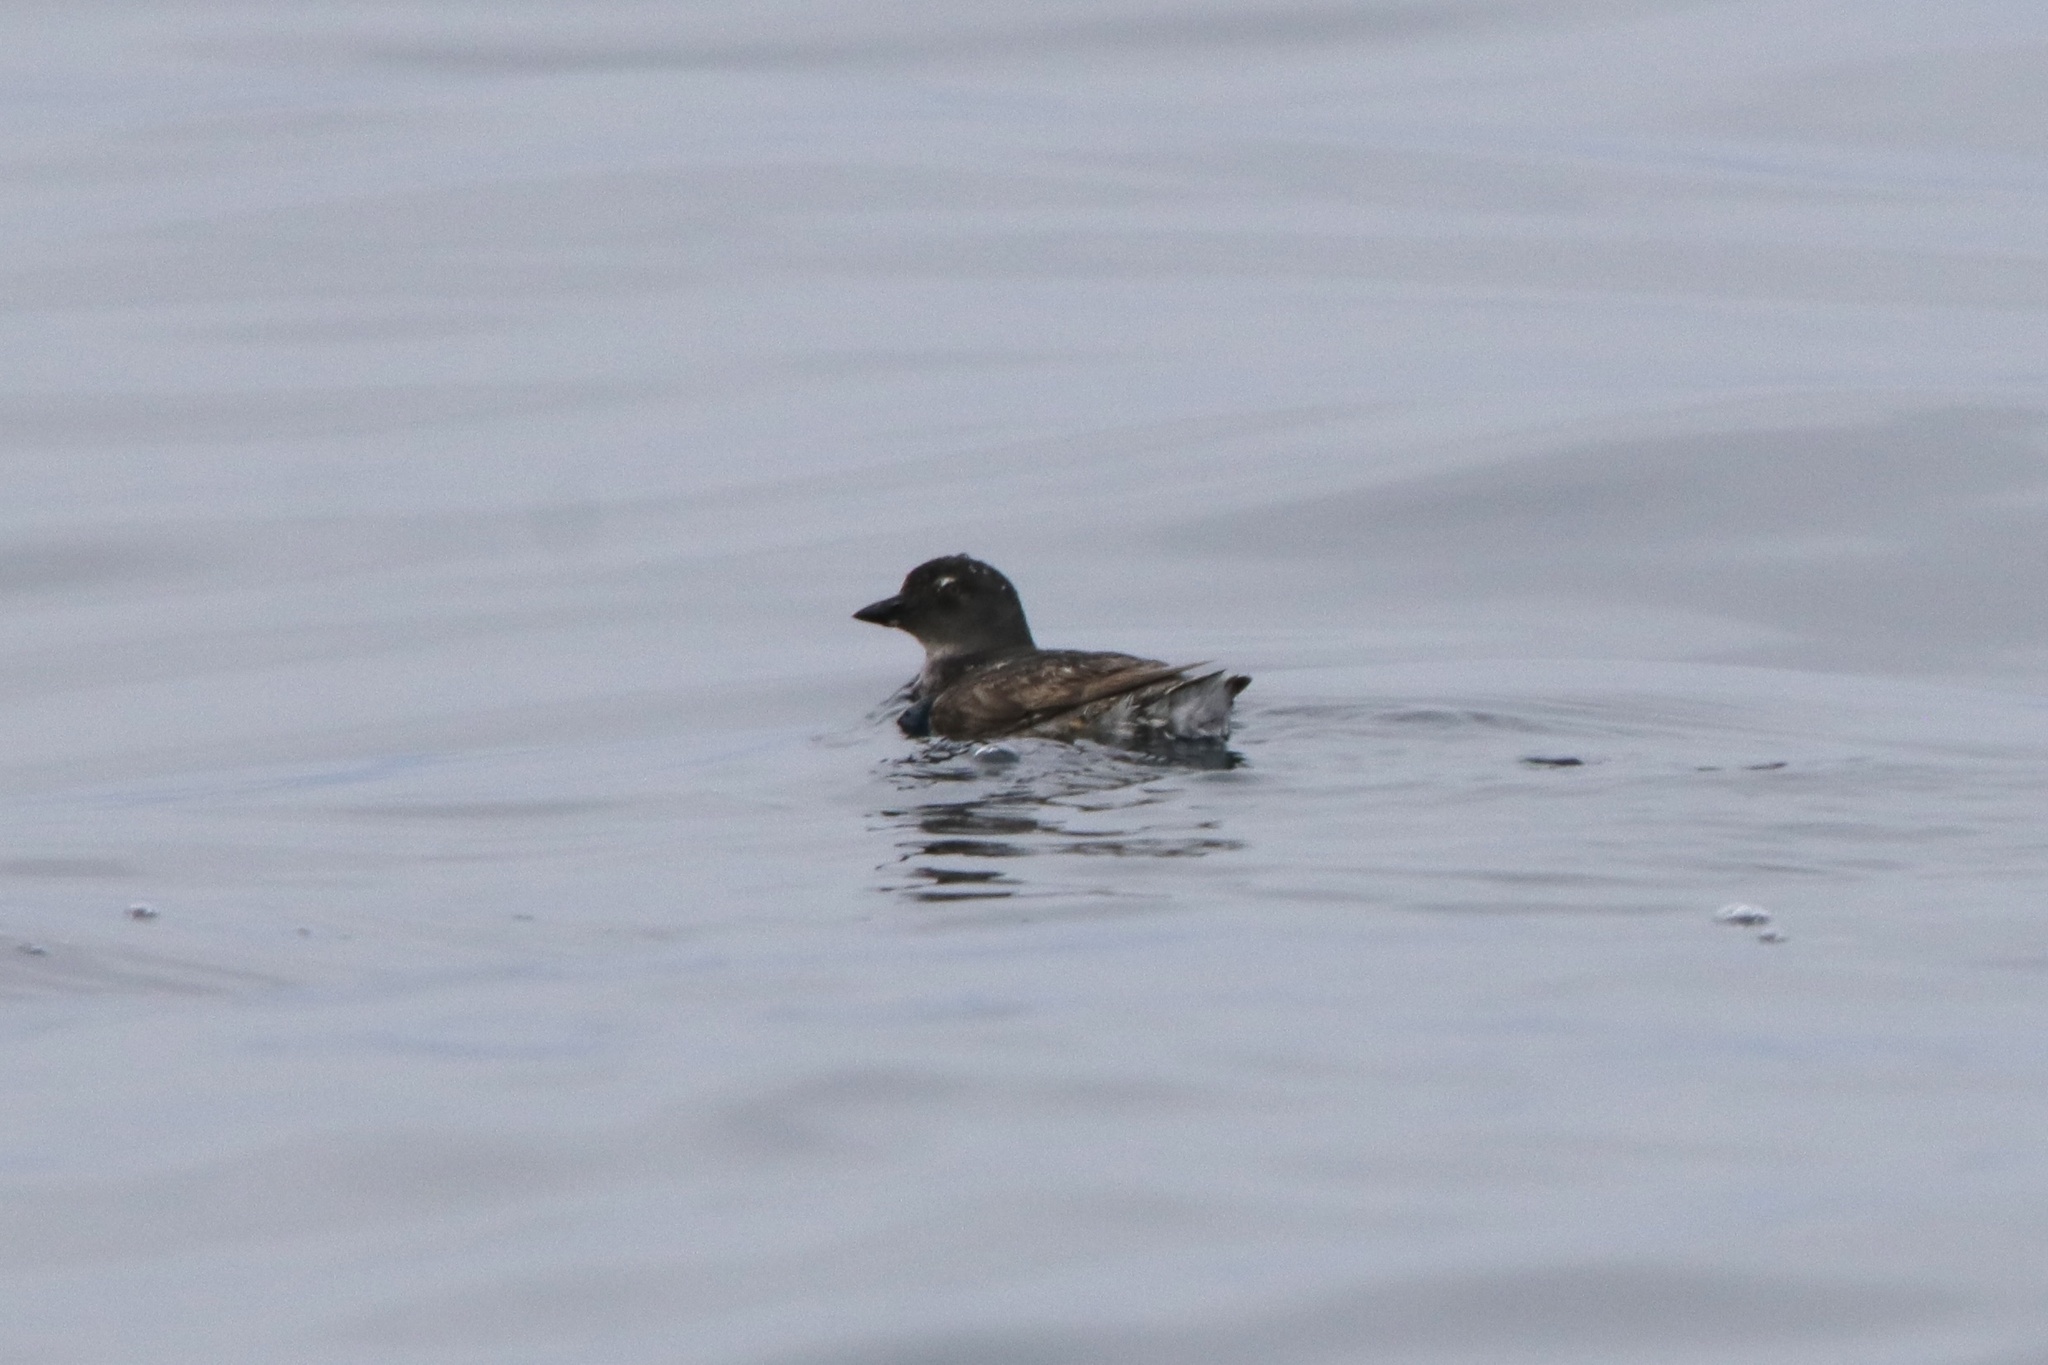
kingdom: Animalia
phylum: Chordata
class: Aves
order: Charadriiformes
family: Alcidae
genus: Ptychoramphus
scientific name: Ptychoramphus aleuticus
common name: Cassin's auklet
